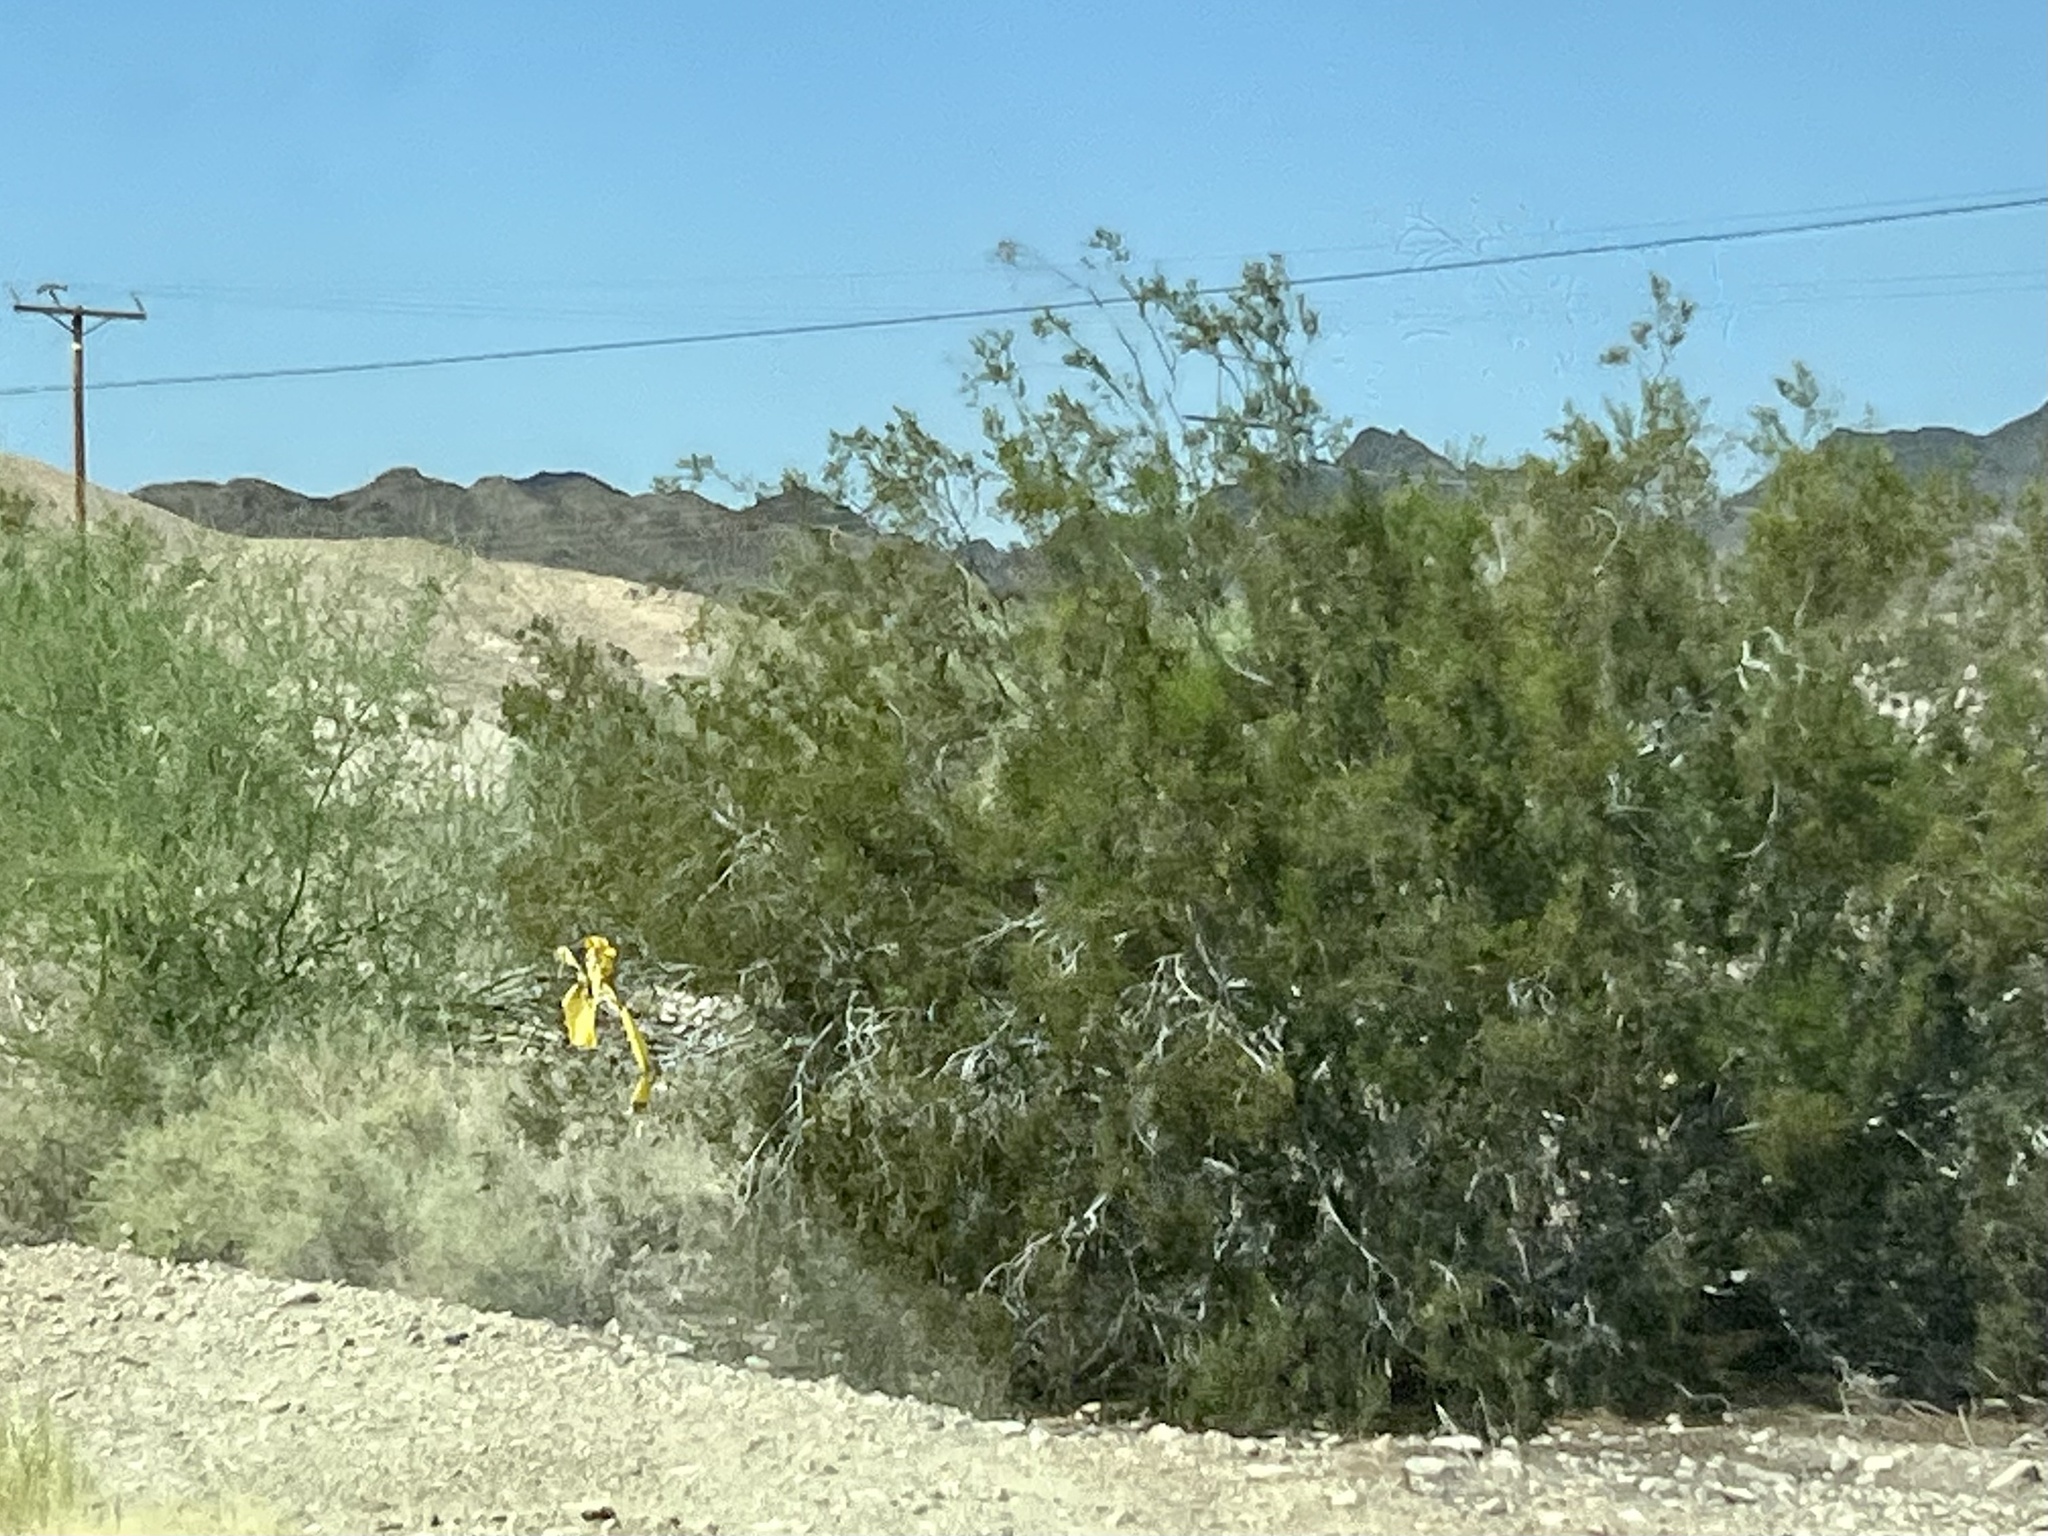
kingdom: Plantae
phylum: Tracheophyta
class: Magnoliopsida
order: Zygophyllales
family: Zygophyllaceae
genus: Larrea
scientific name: Larrea tridentata
